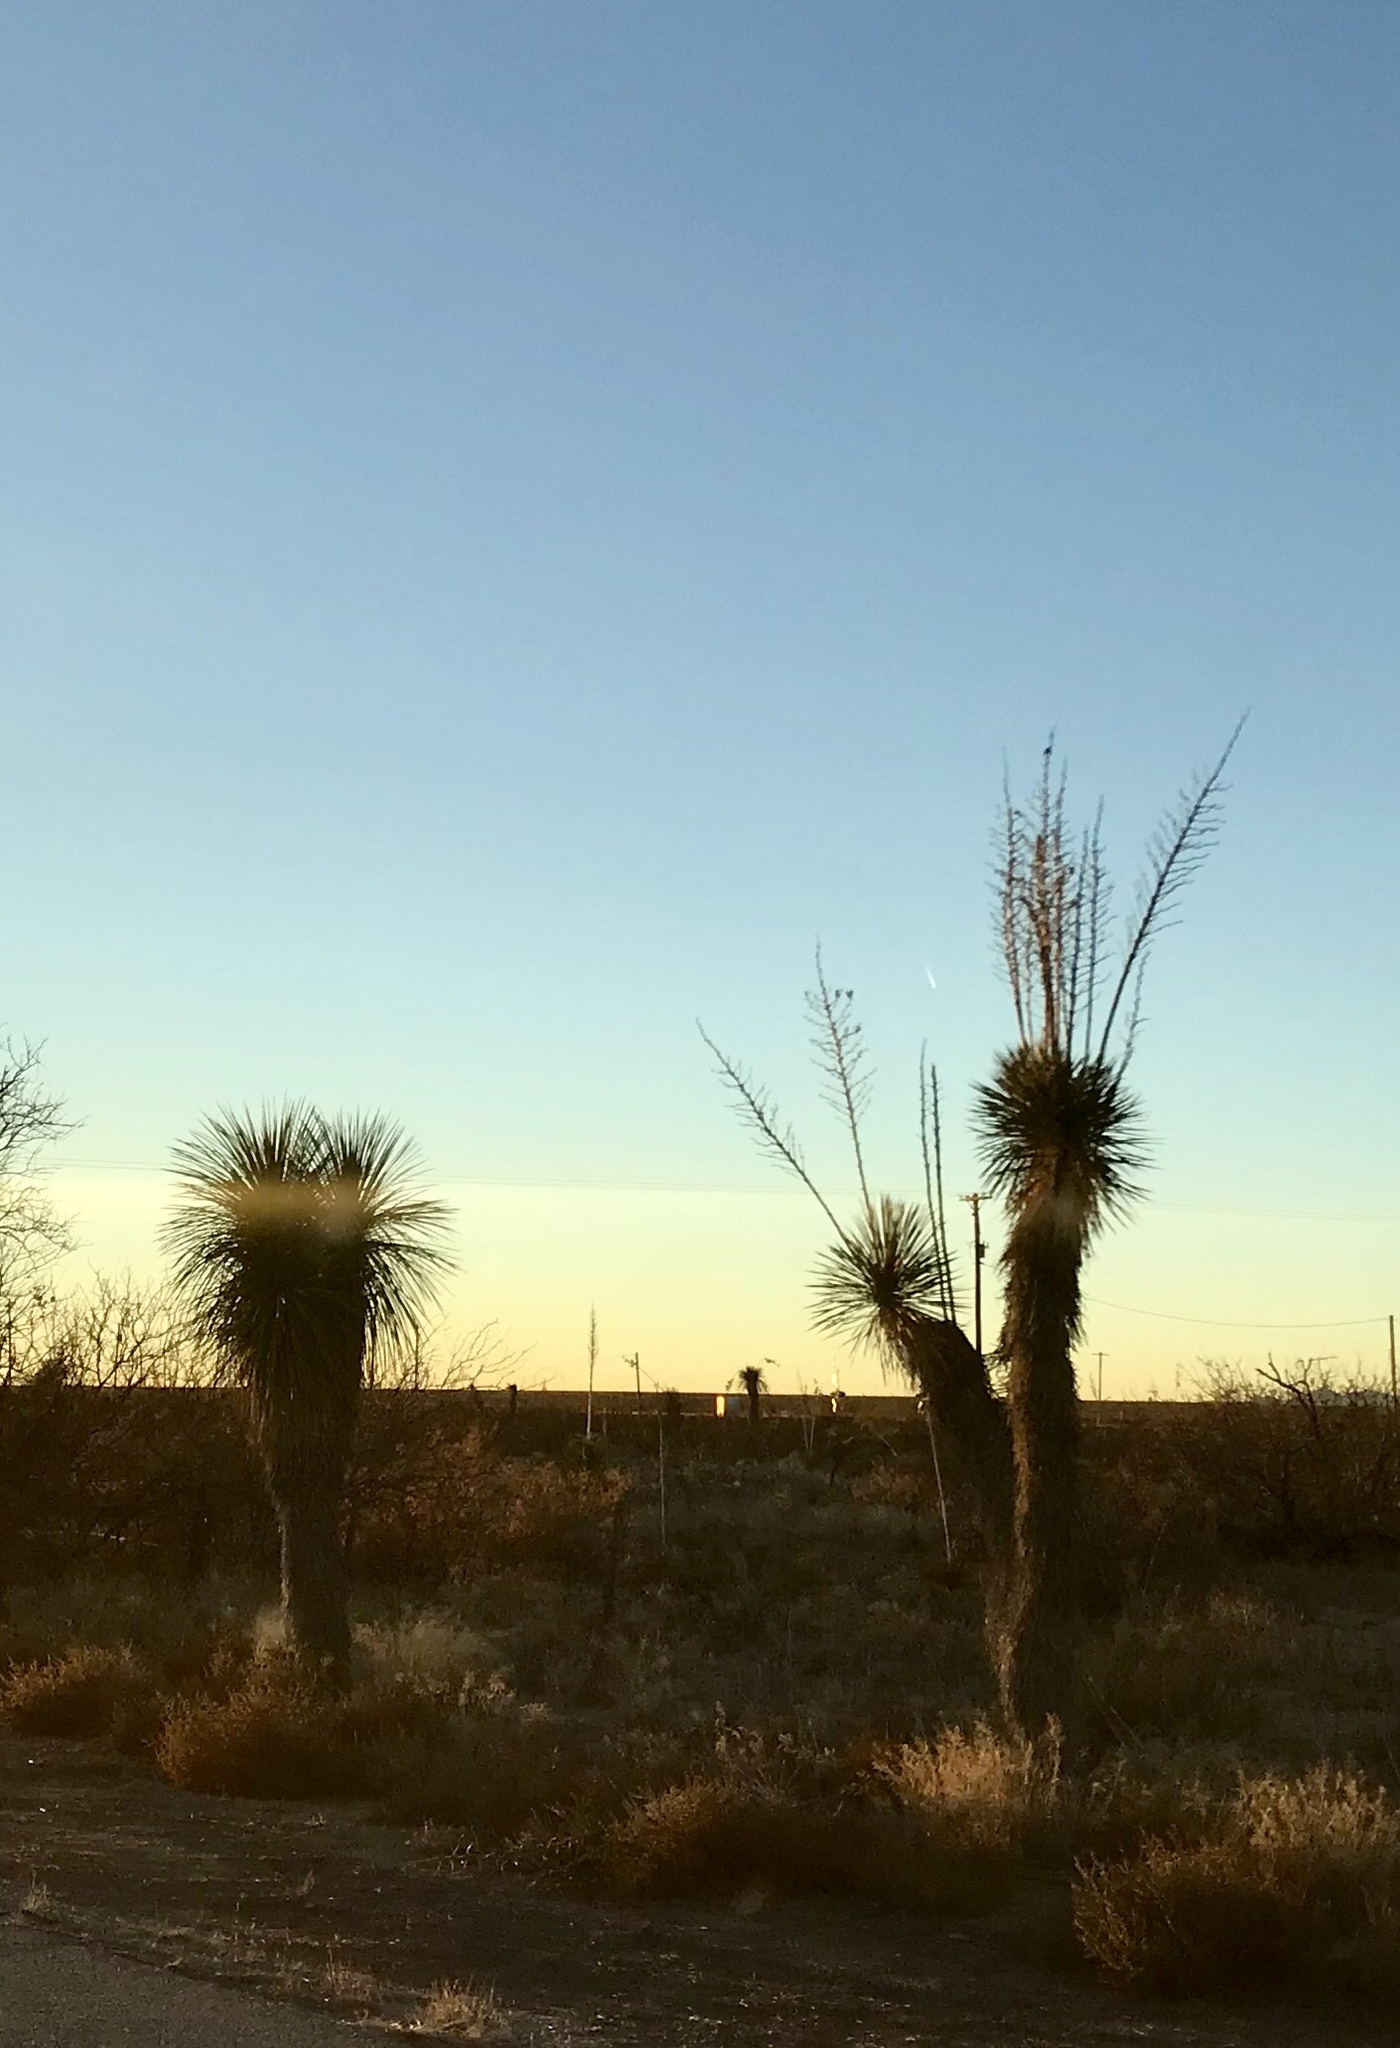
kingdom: Plantae
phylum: Tracheophyta
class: Liliopsida
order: Asparagales
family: Asparagaceae
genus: Yucca
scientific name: Yucca elata
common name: Palmella
